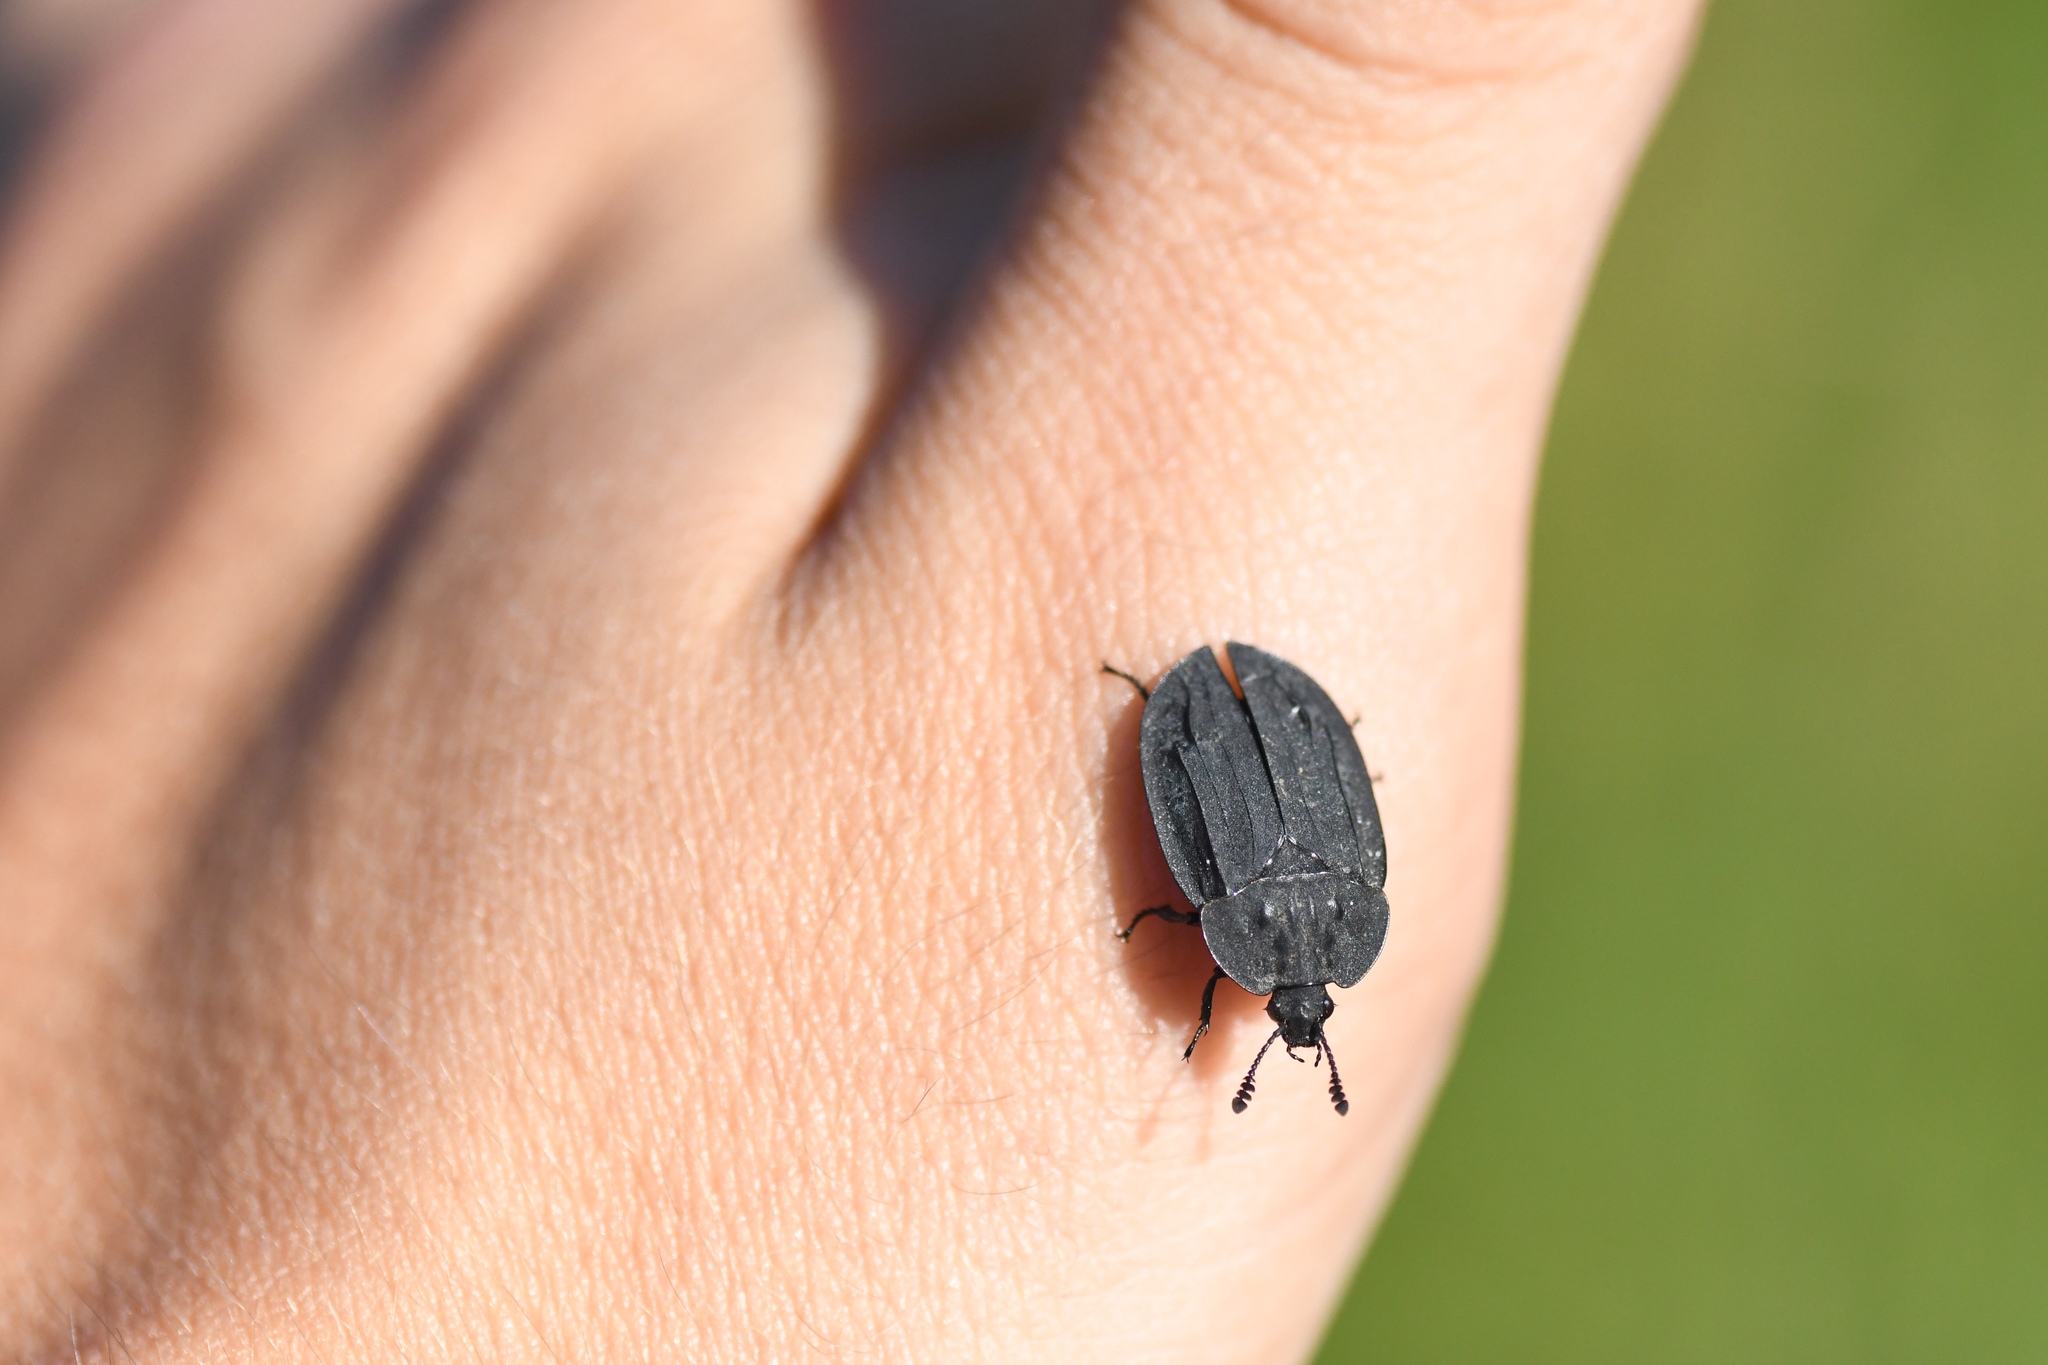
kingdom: Animalia
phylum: Arthropoda
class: Insecta
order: Coleoptera
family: Staphylinidae
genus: Oiceoptoma
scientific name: Oiceoptoma inaequale
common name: Ridged carrion beetle
